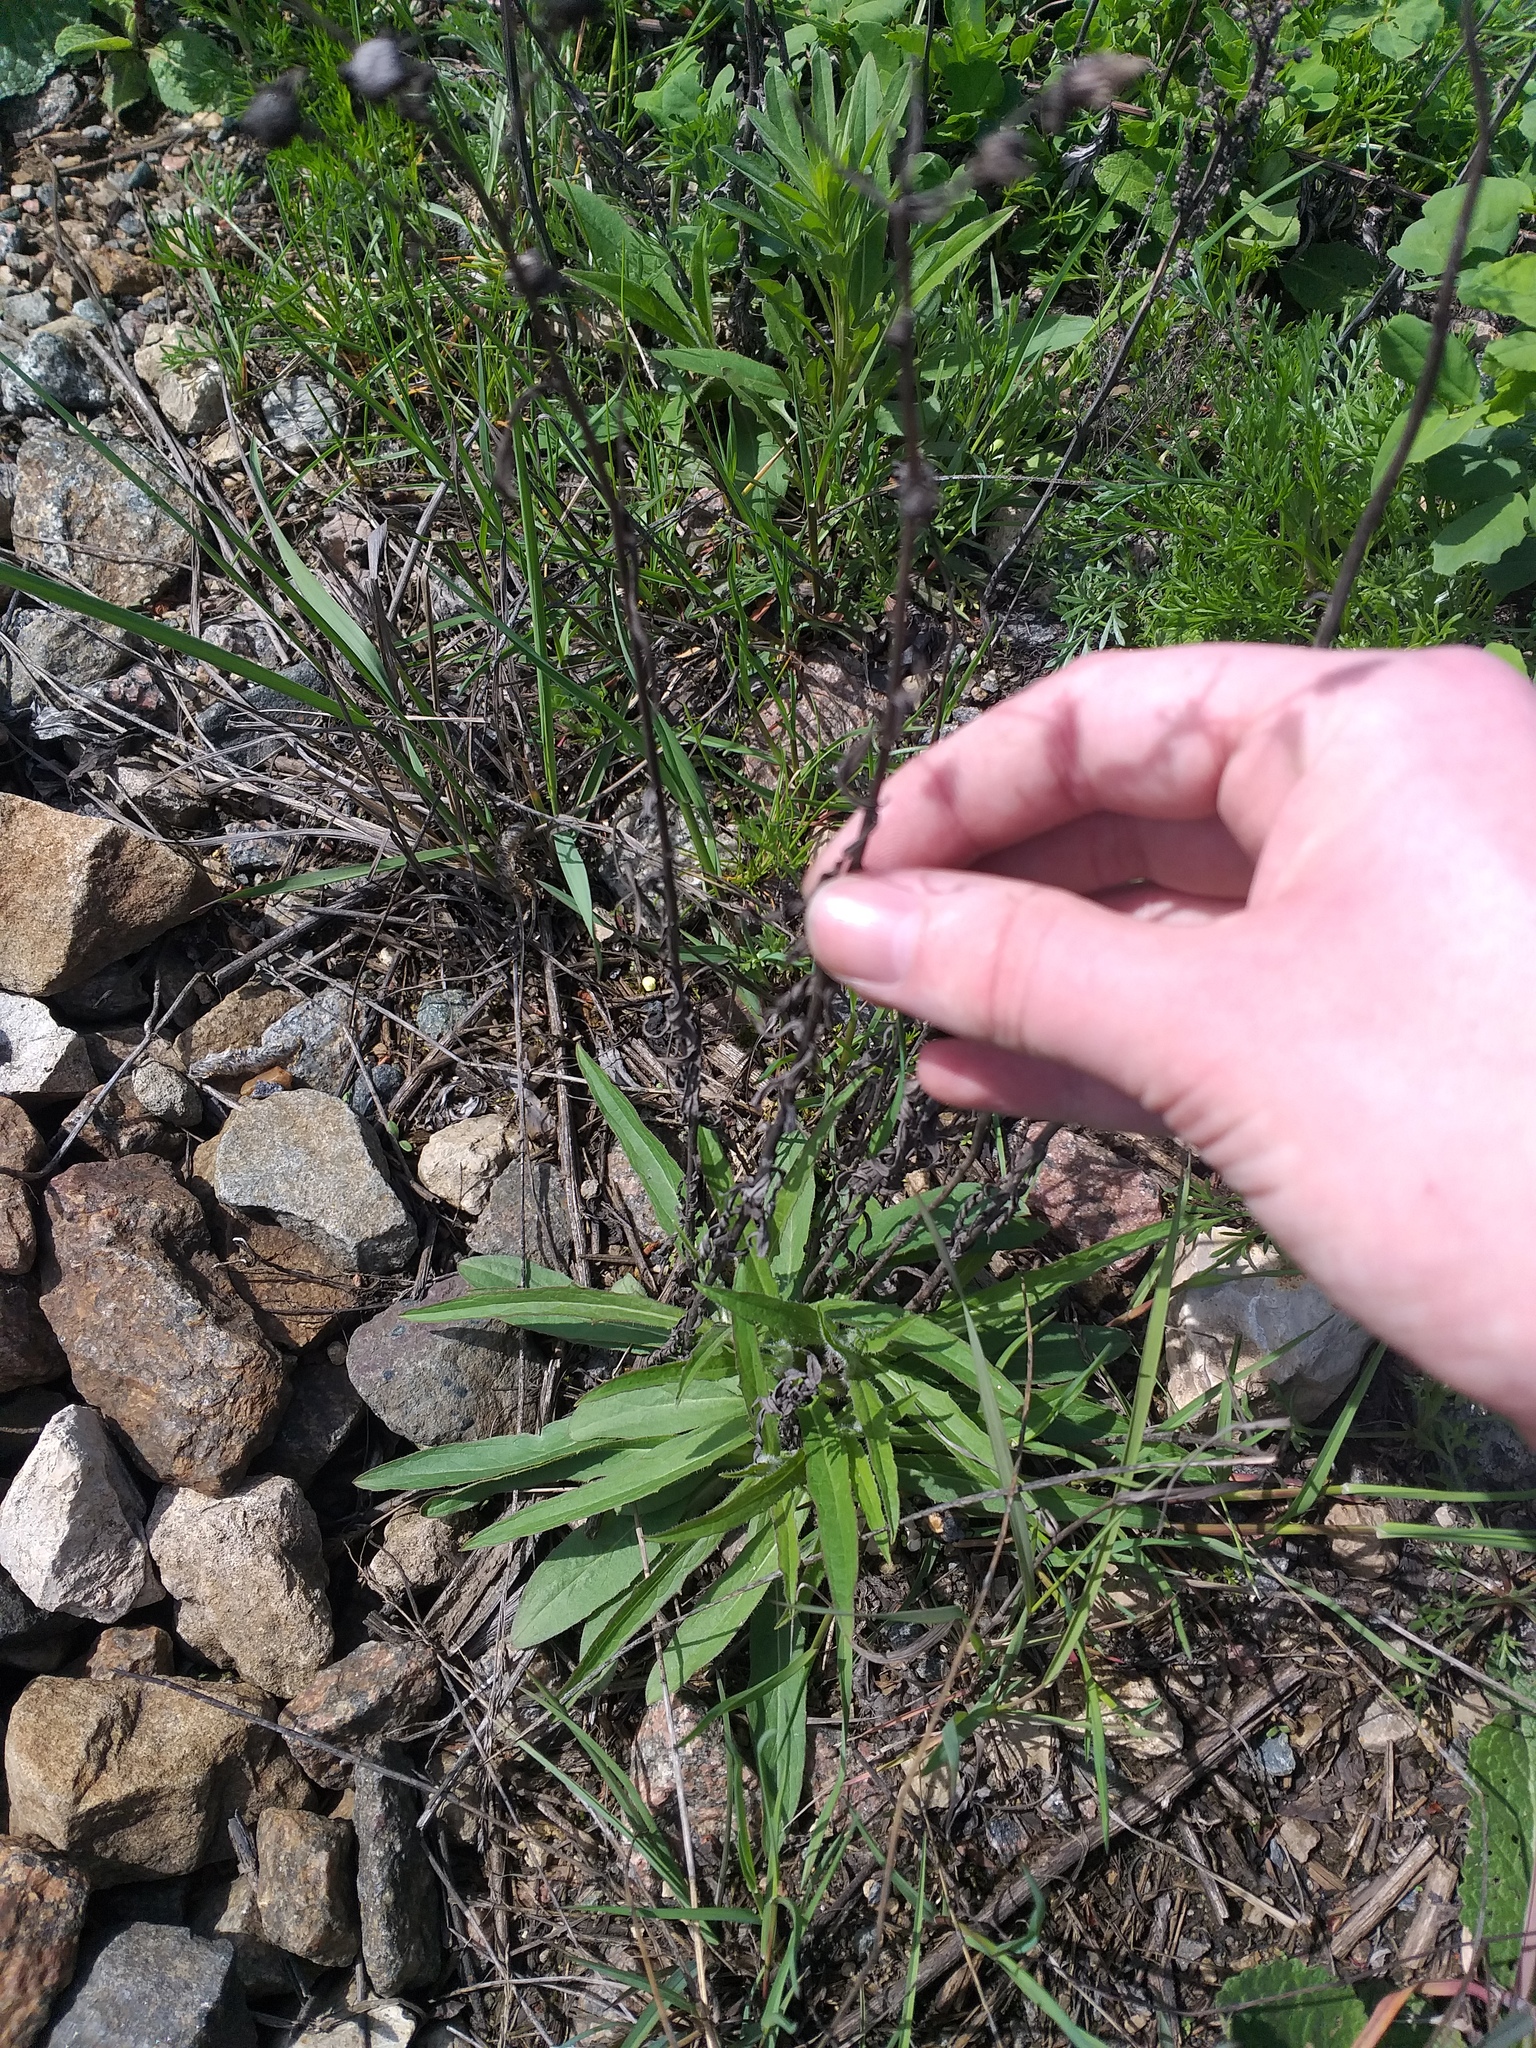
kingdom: Plantae
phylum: Tracheophyta
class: Magnoliopsida
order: Asterales
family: Asteraceae
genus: Hieracium
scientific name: Hieracium umbellatum
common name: Northern hawkweed
